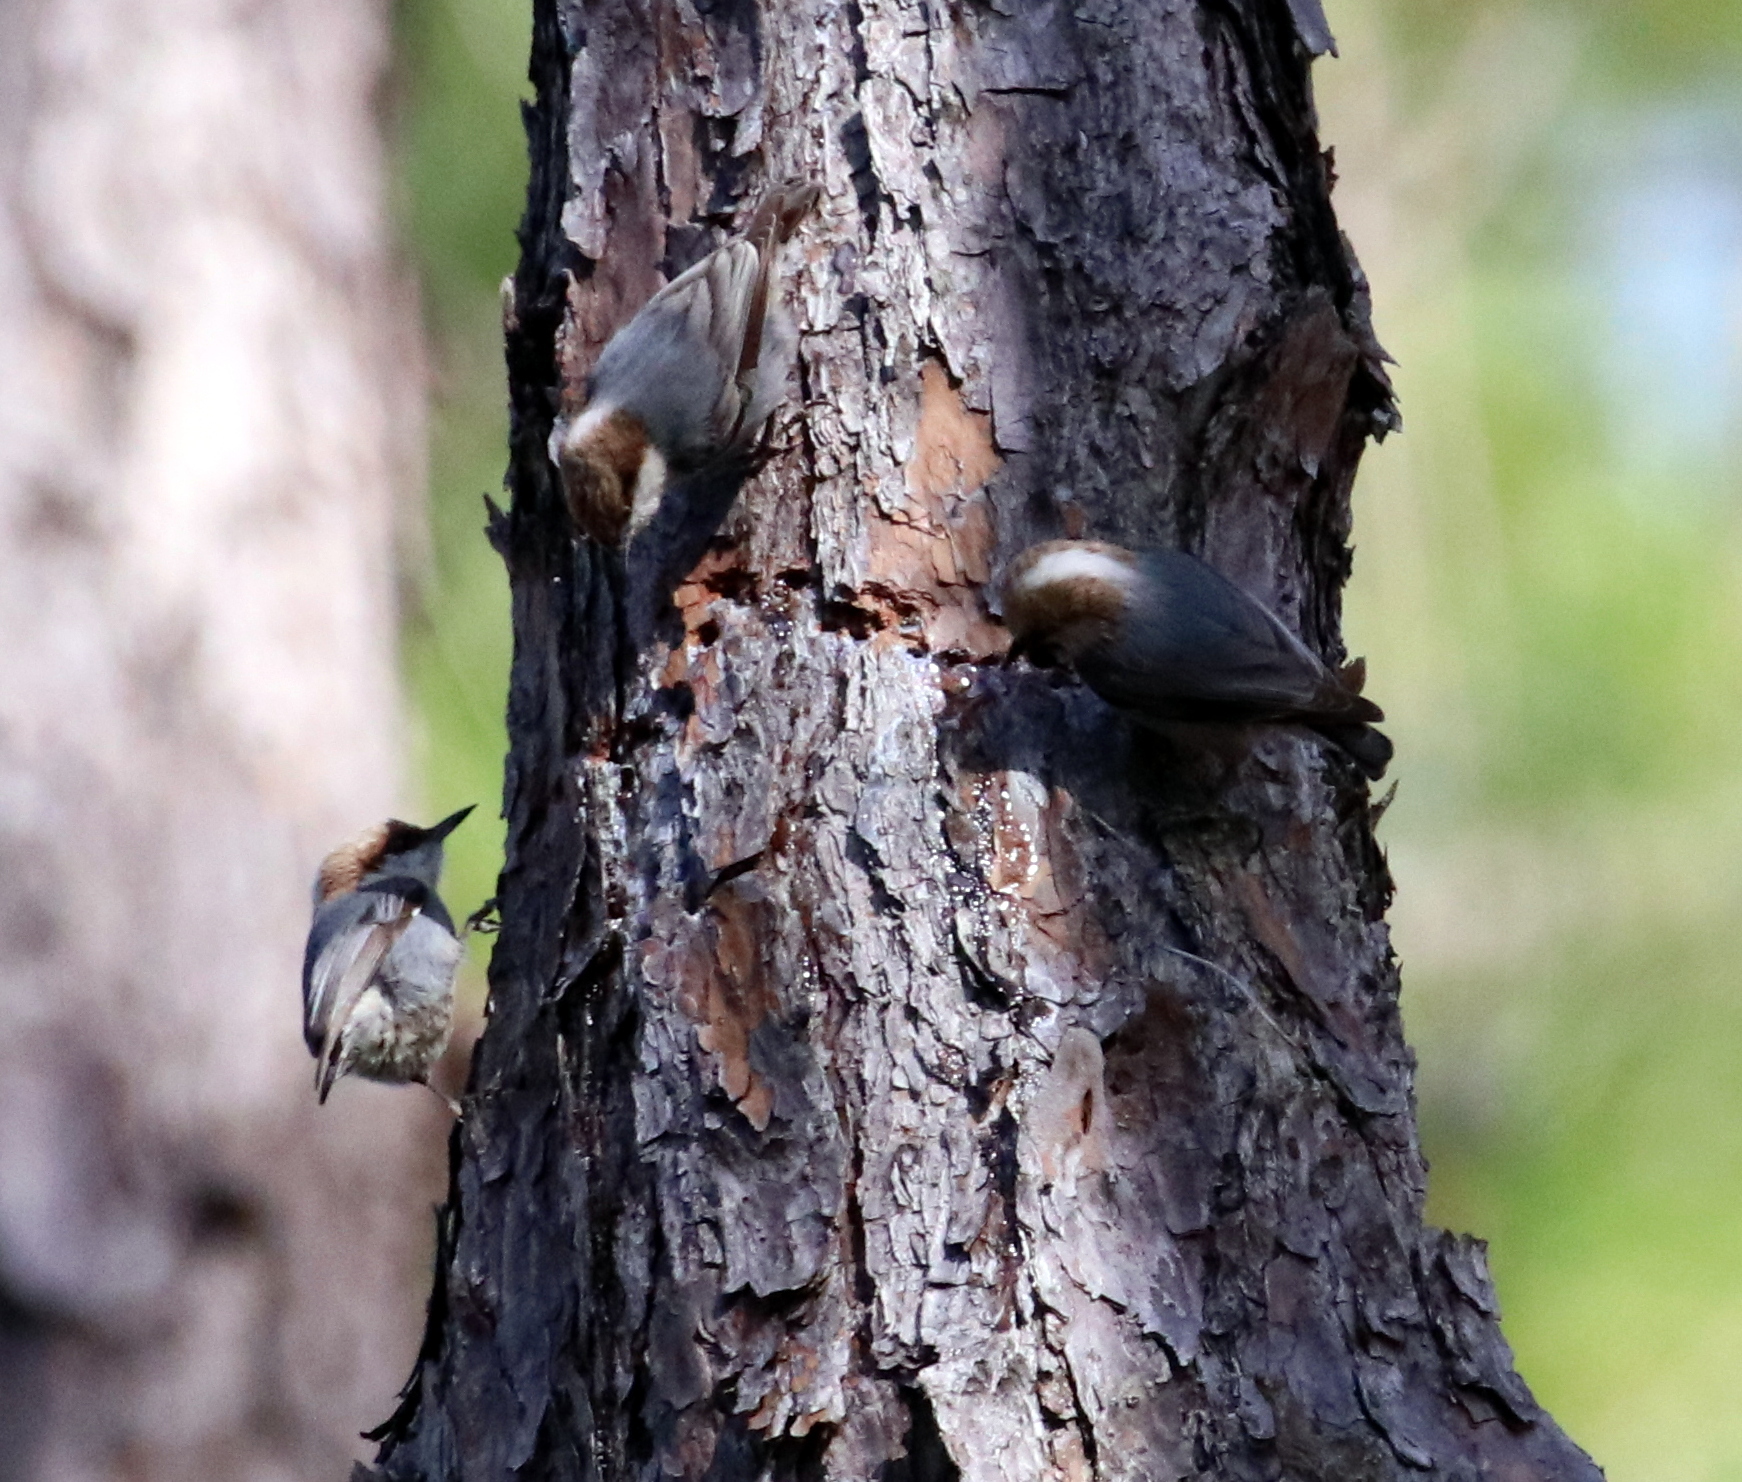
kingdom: Animalia
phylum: Chordata
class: Aves
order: Passeriformes
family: Sittidae
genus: Sitta
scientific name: Sitta pusilla
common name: Brown-headed nuthatch
